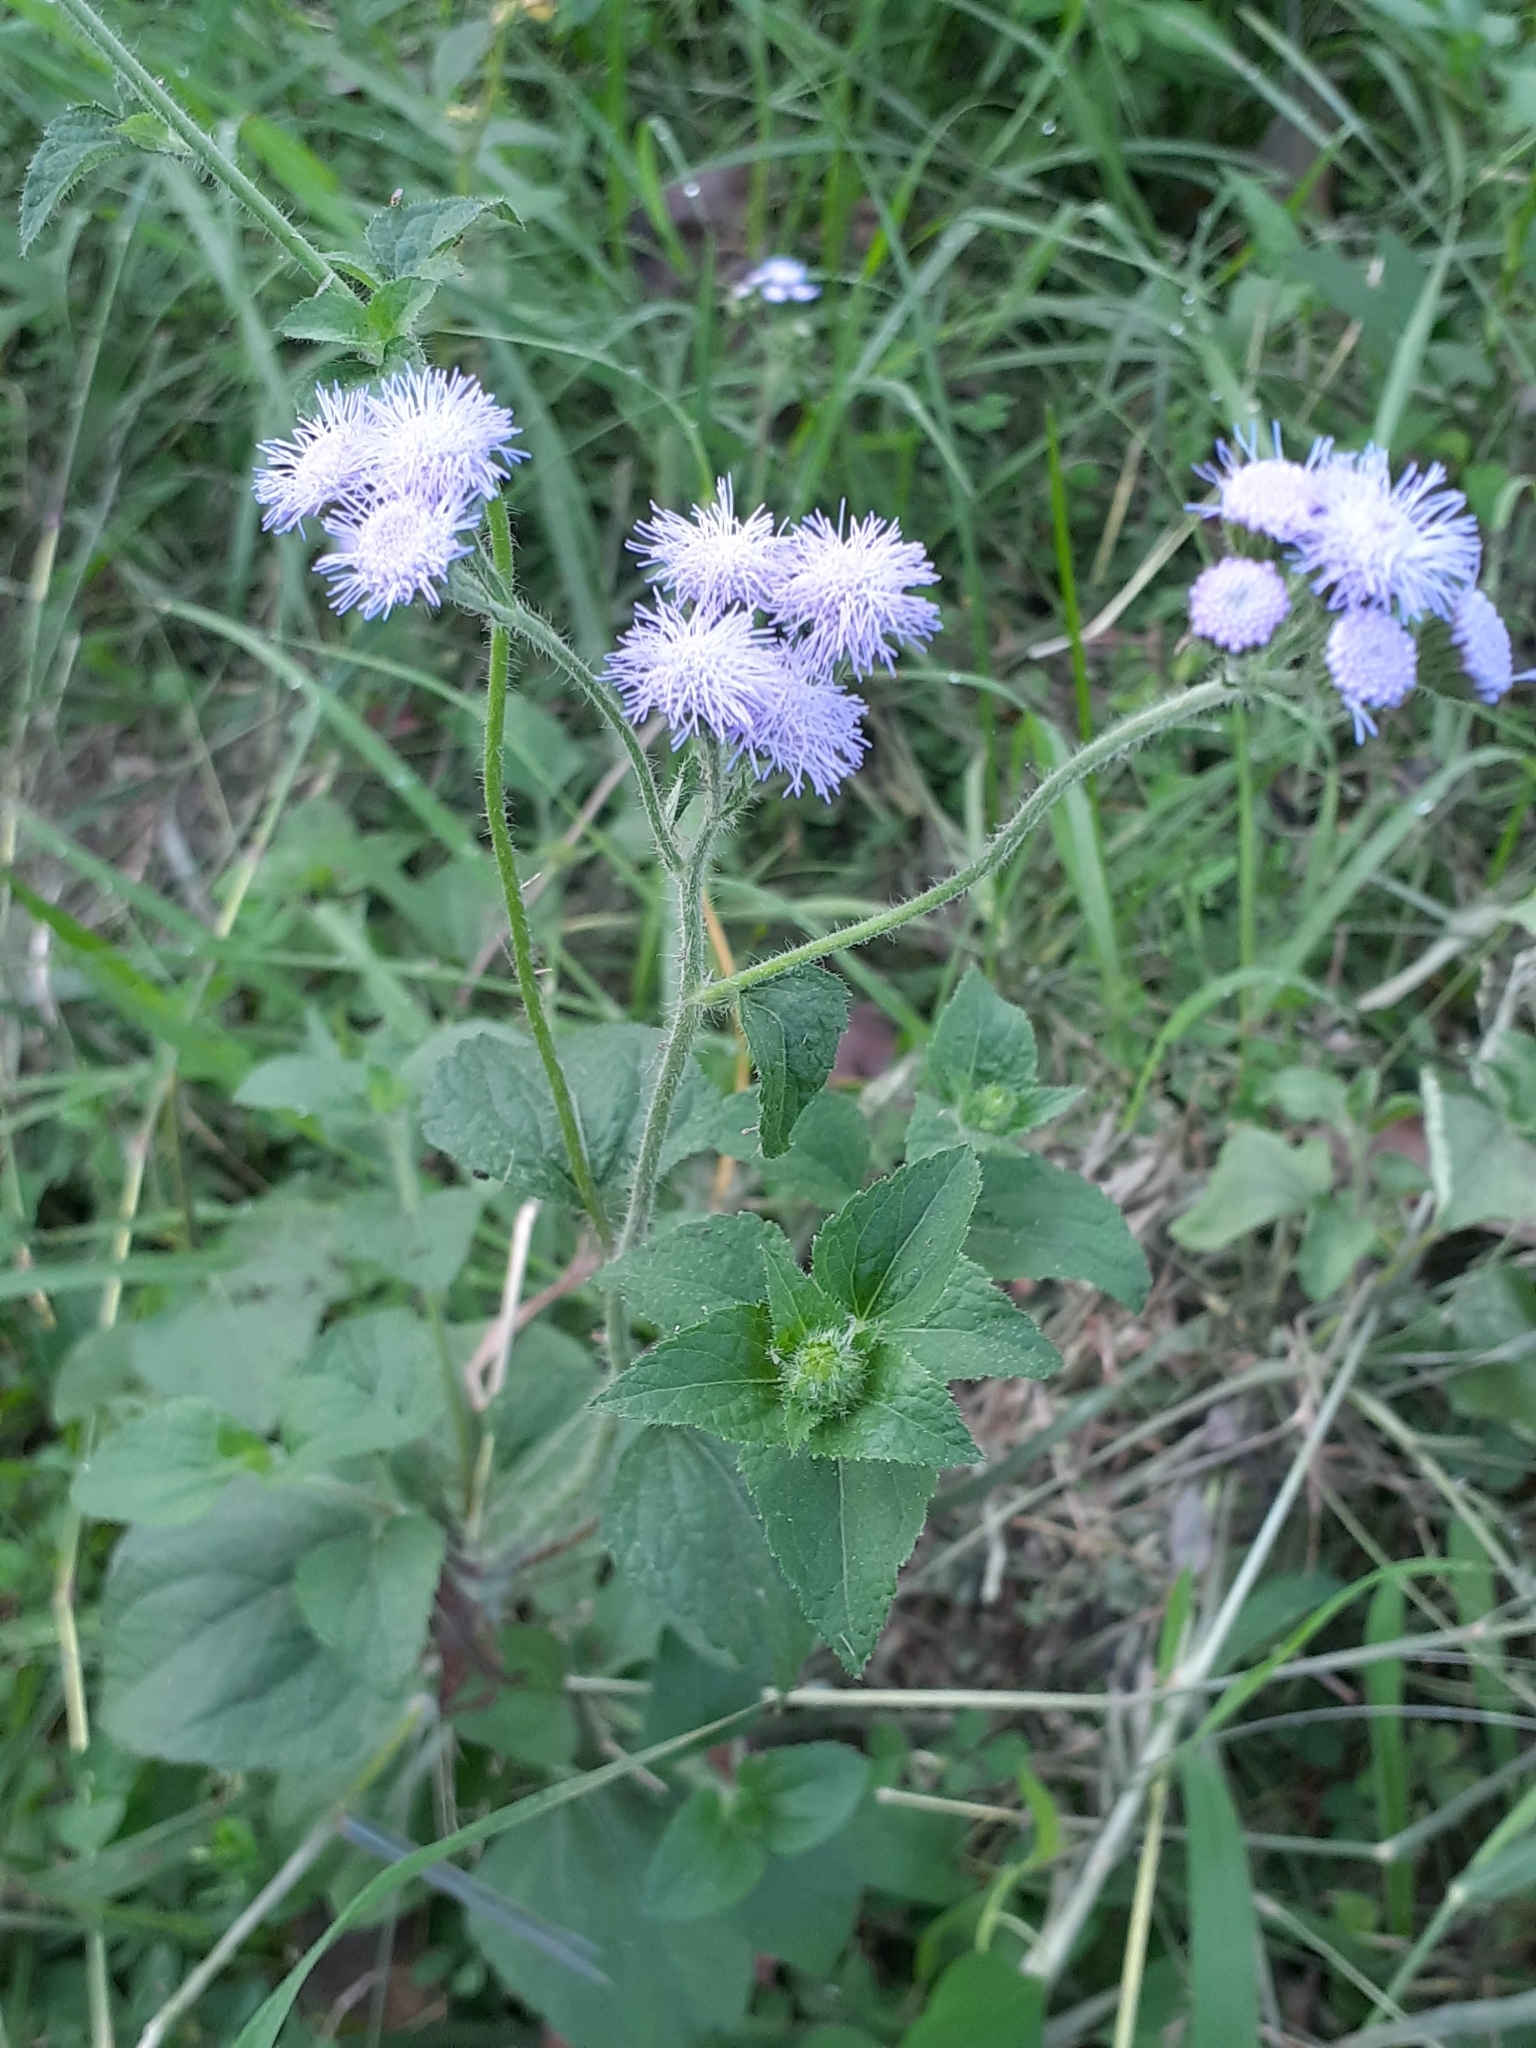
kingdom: Plantae
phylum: Tracheophyta
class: Magnoliopsida
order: Asterales
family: Asteraceae
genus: Ageratum
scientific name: Ageratum houstonianum
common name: Bluemink
